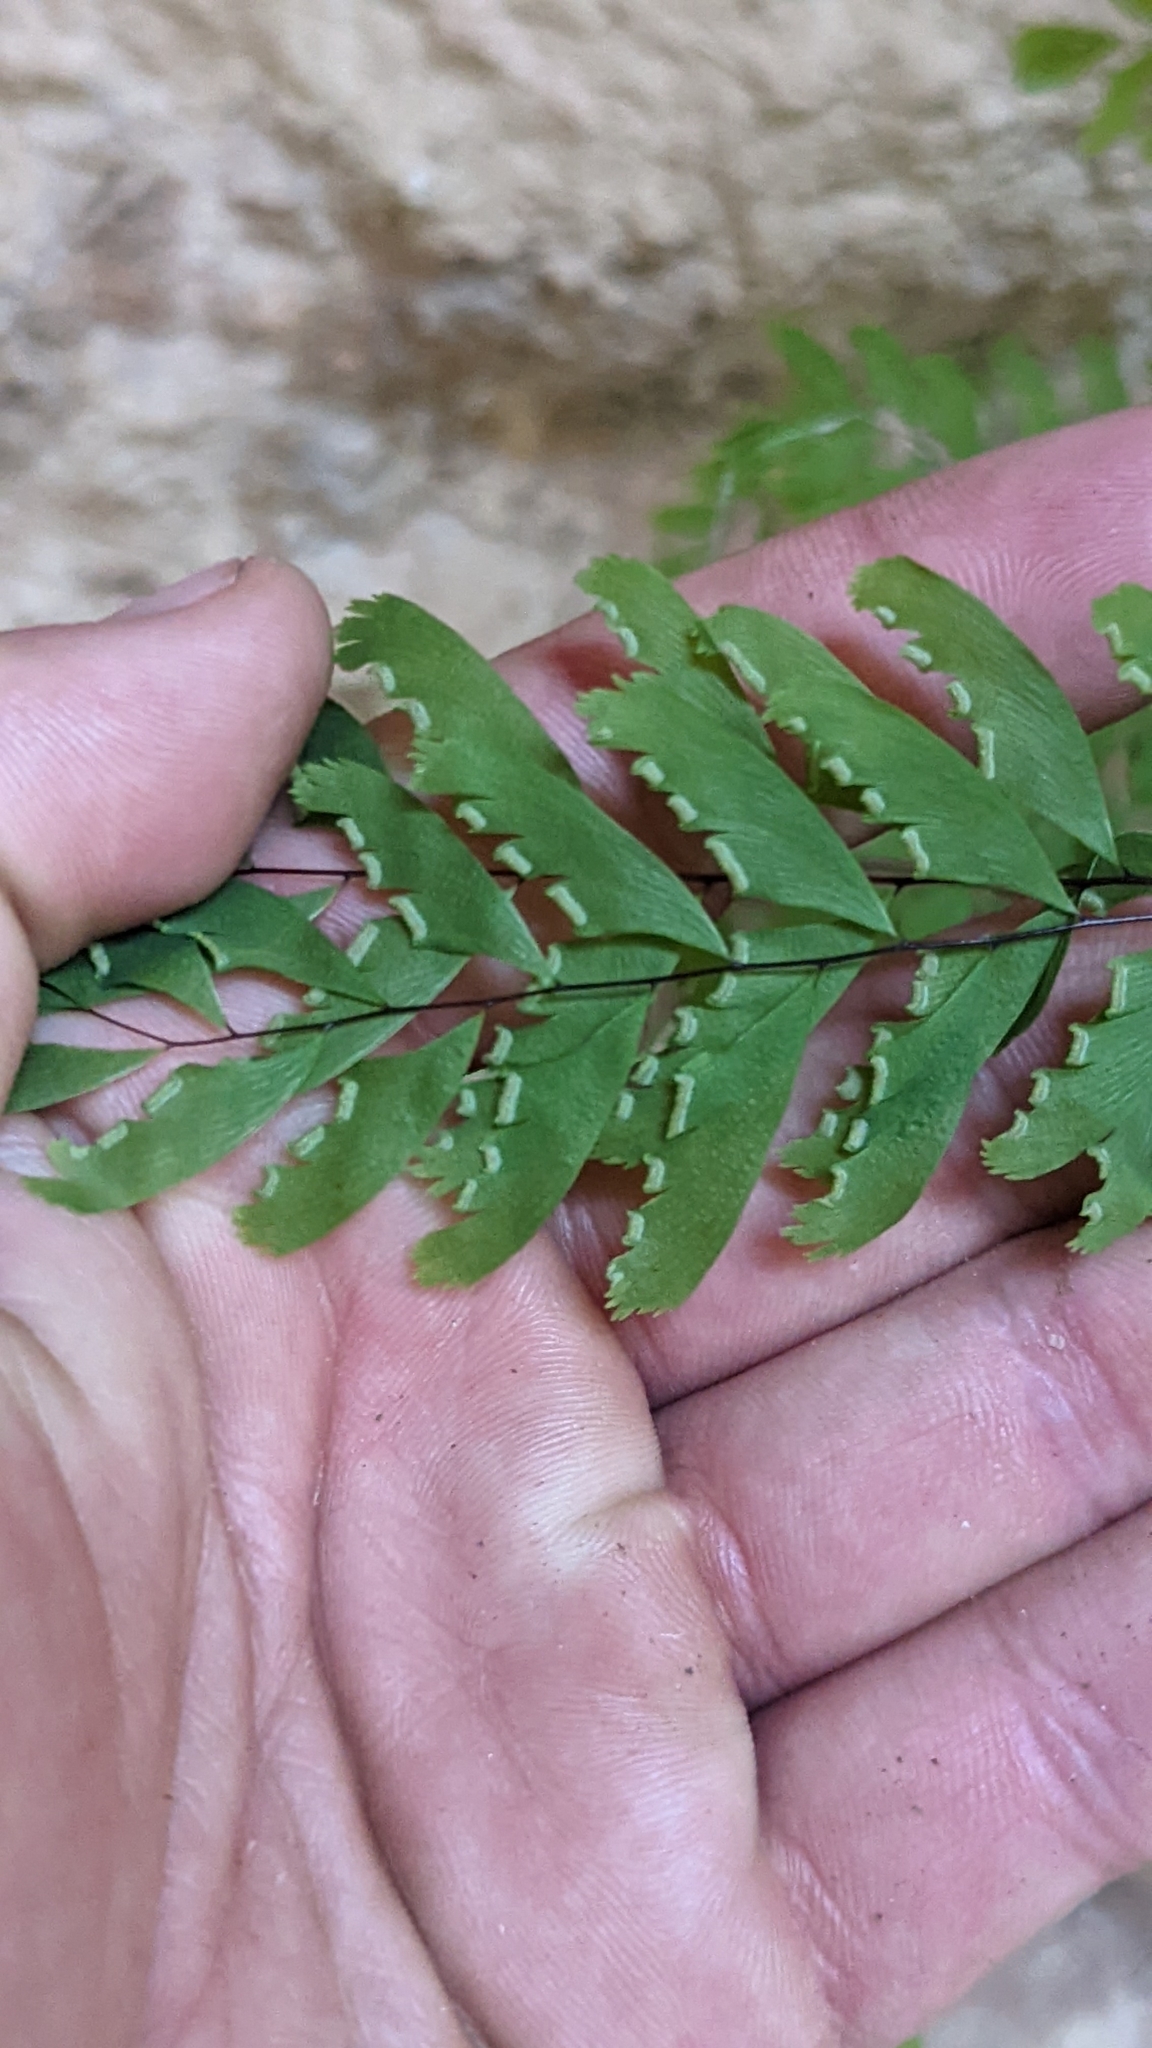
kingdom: Plantae
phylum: Tracheophyta
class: Polypodiopsida
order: Polypodiales
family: Pteridaceae
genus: Adiantum
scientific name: Adiantum aleuticum
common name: Aleutian maidenhair fern
